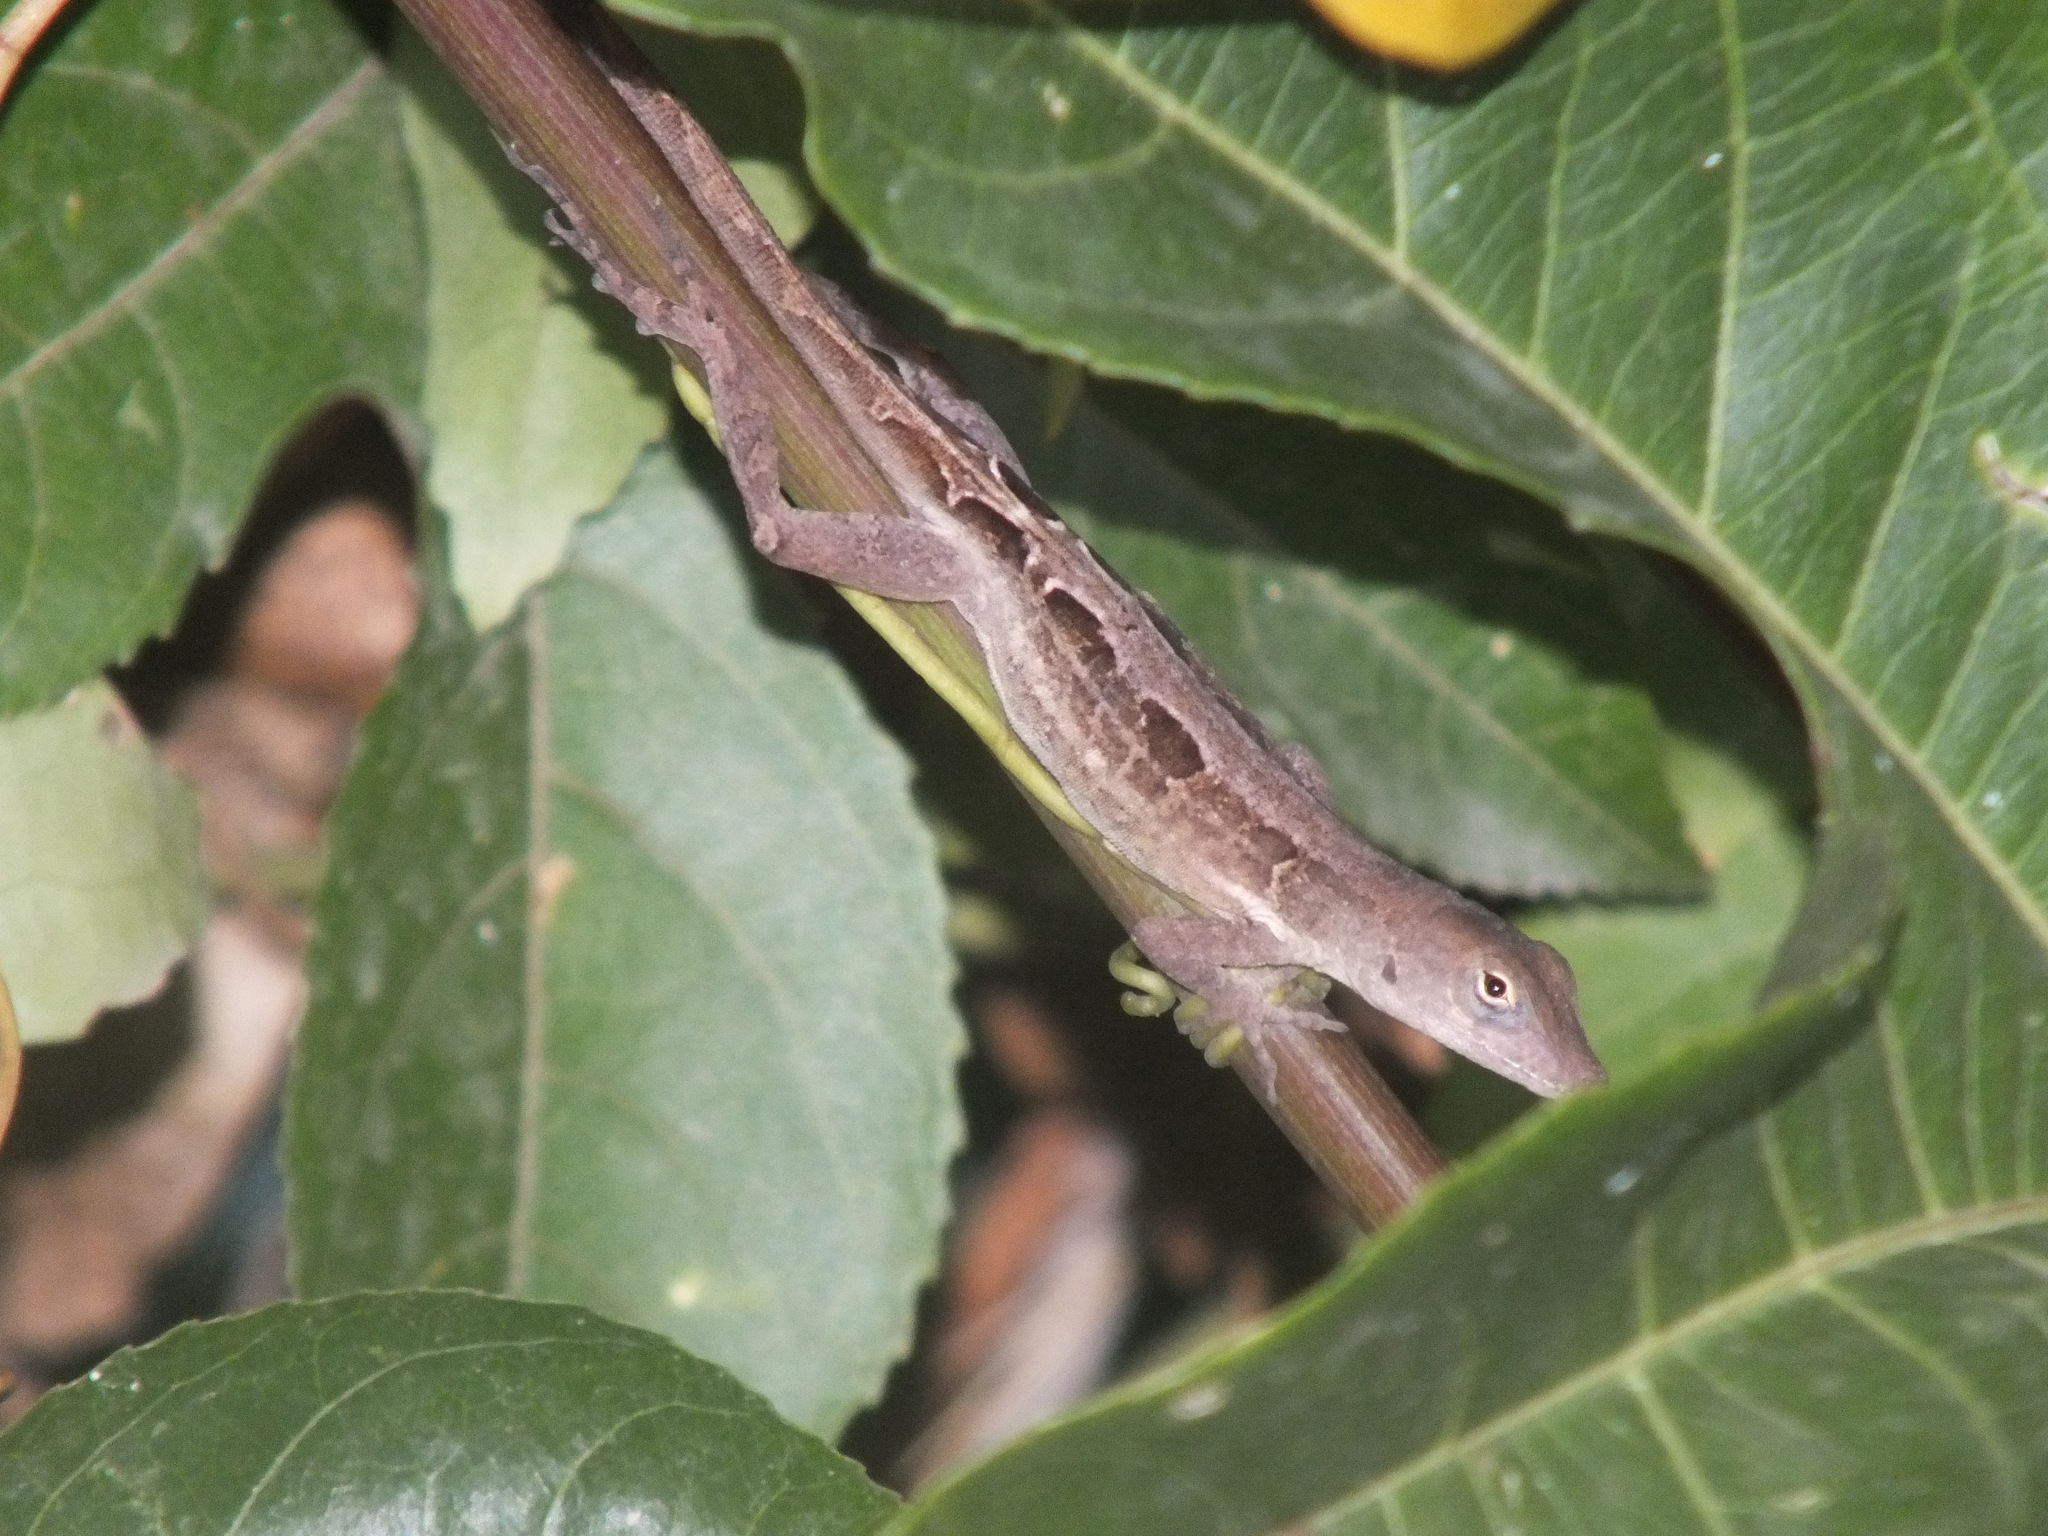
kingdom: Animalia
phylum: Chordata
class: Squamata
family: Dactyloidae
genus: Anolis
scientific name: Anolis lineatopus
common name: Stripefoot anole
